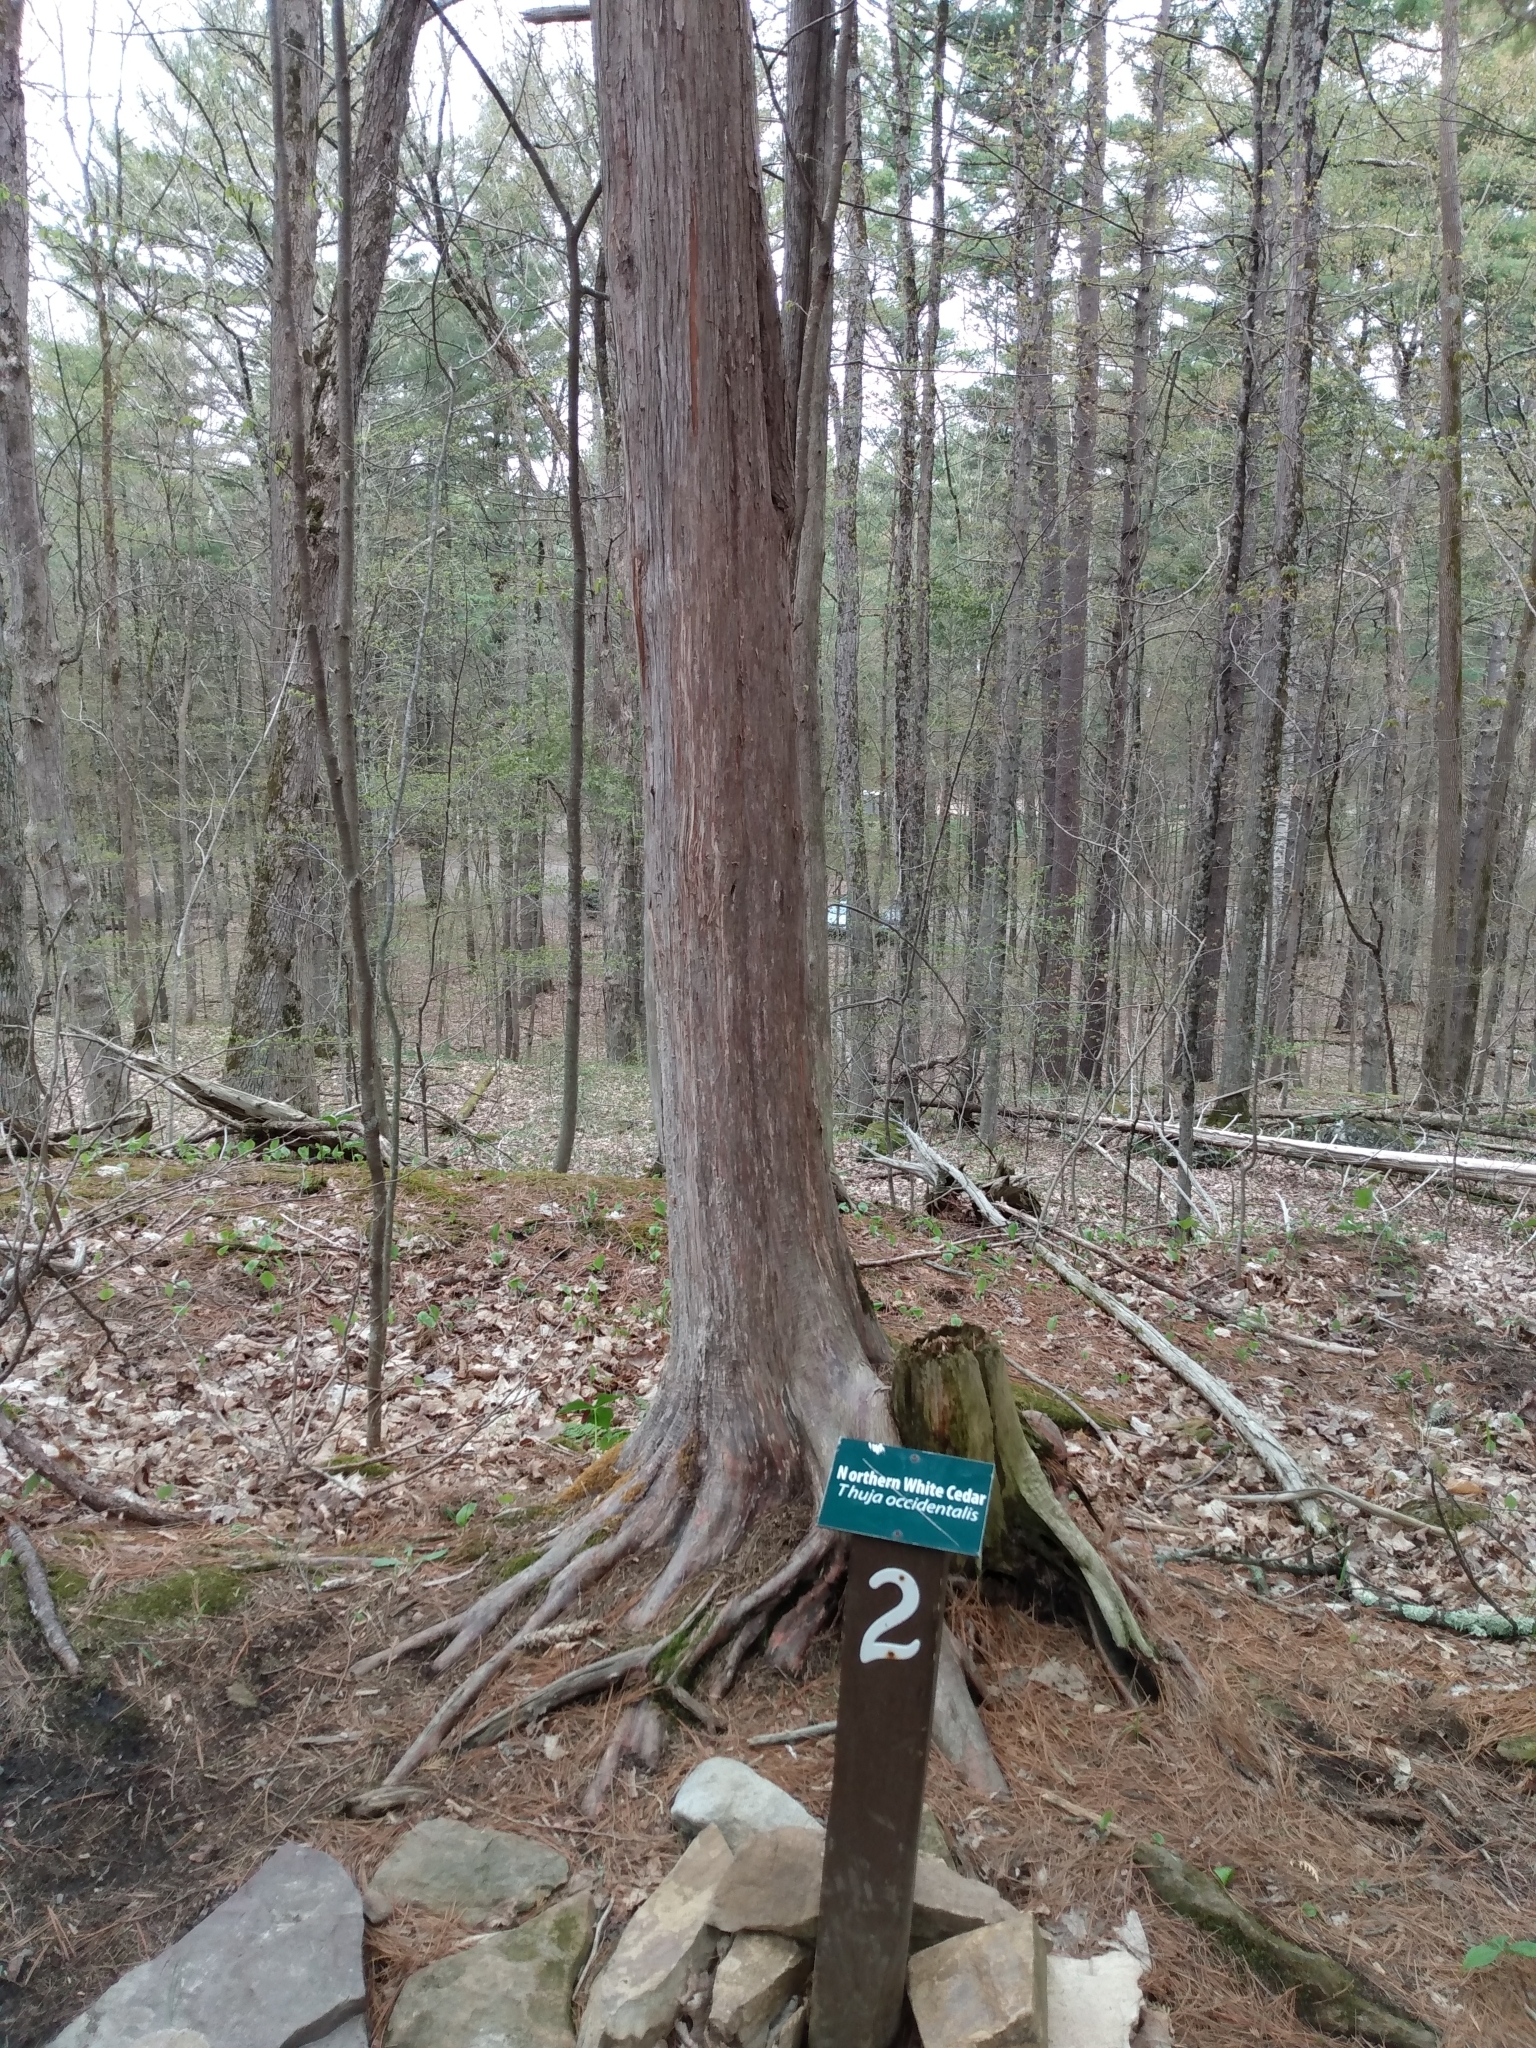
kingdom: Plantae
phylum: Tracheophyta
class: Pinopsida
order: Pinales
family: Cupressaceae
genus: Thuja
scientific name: Thuja occidentalis
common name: Northern white-cedar
